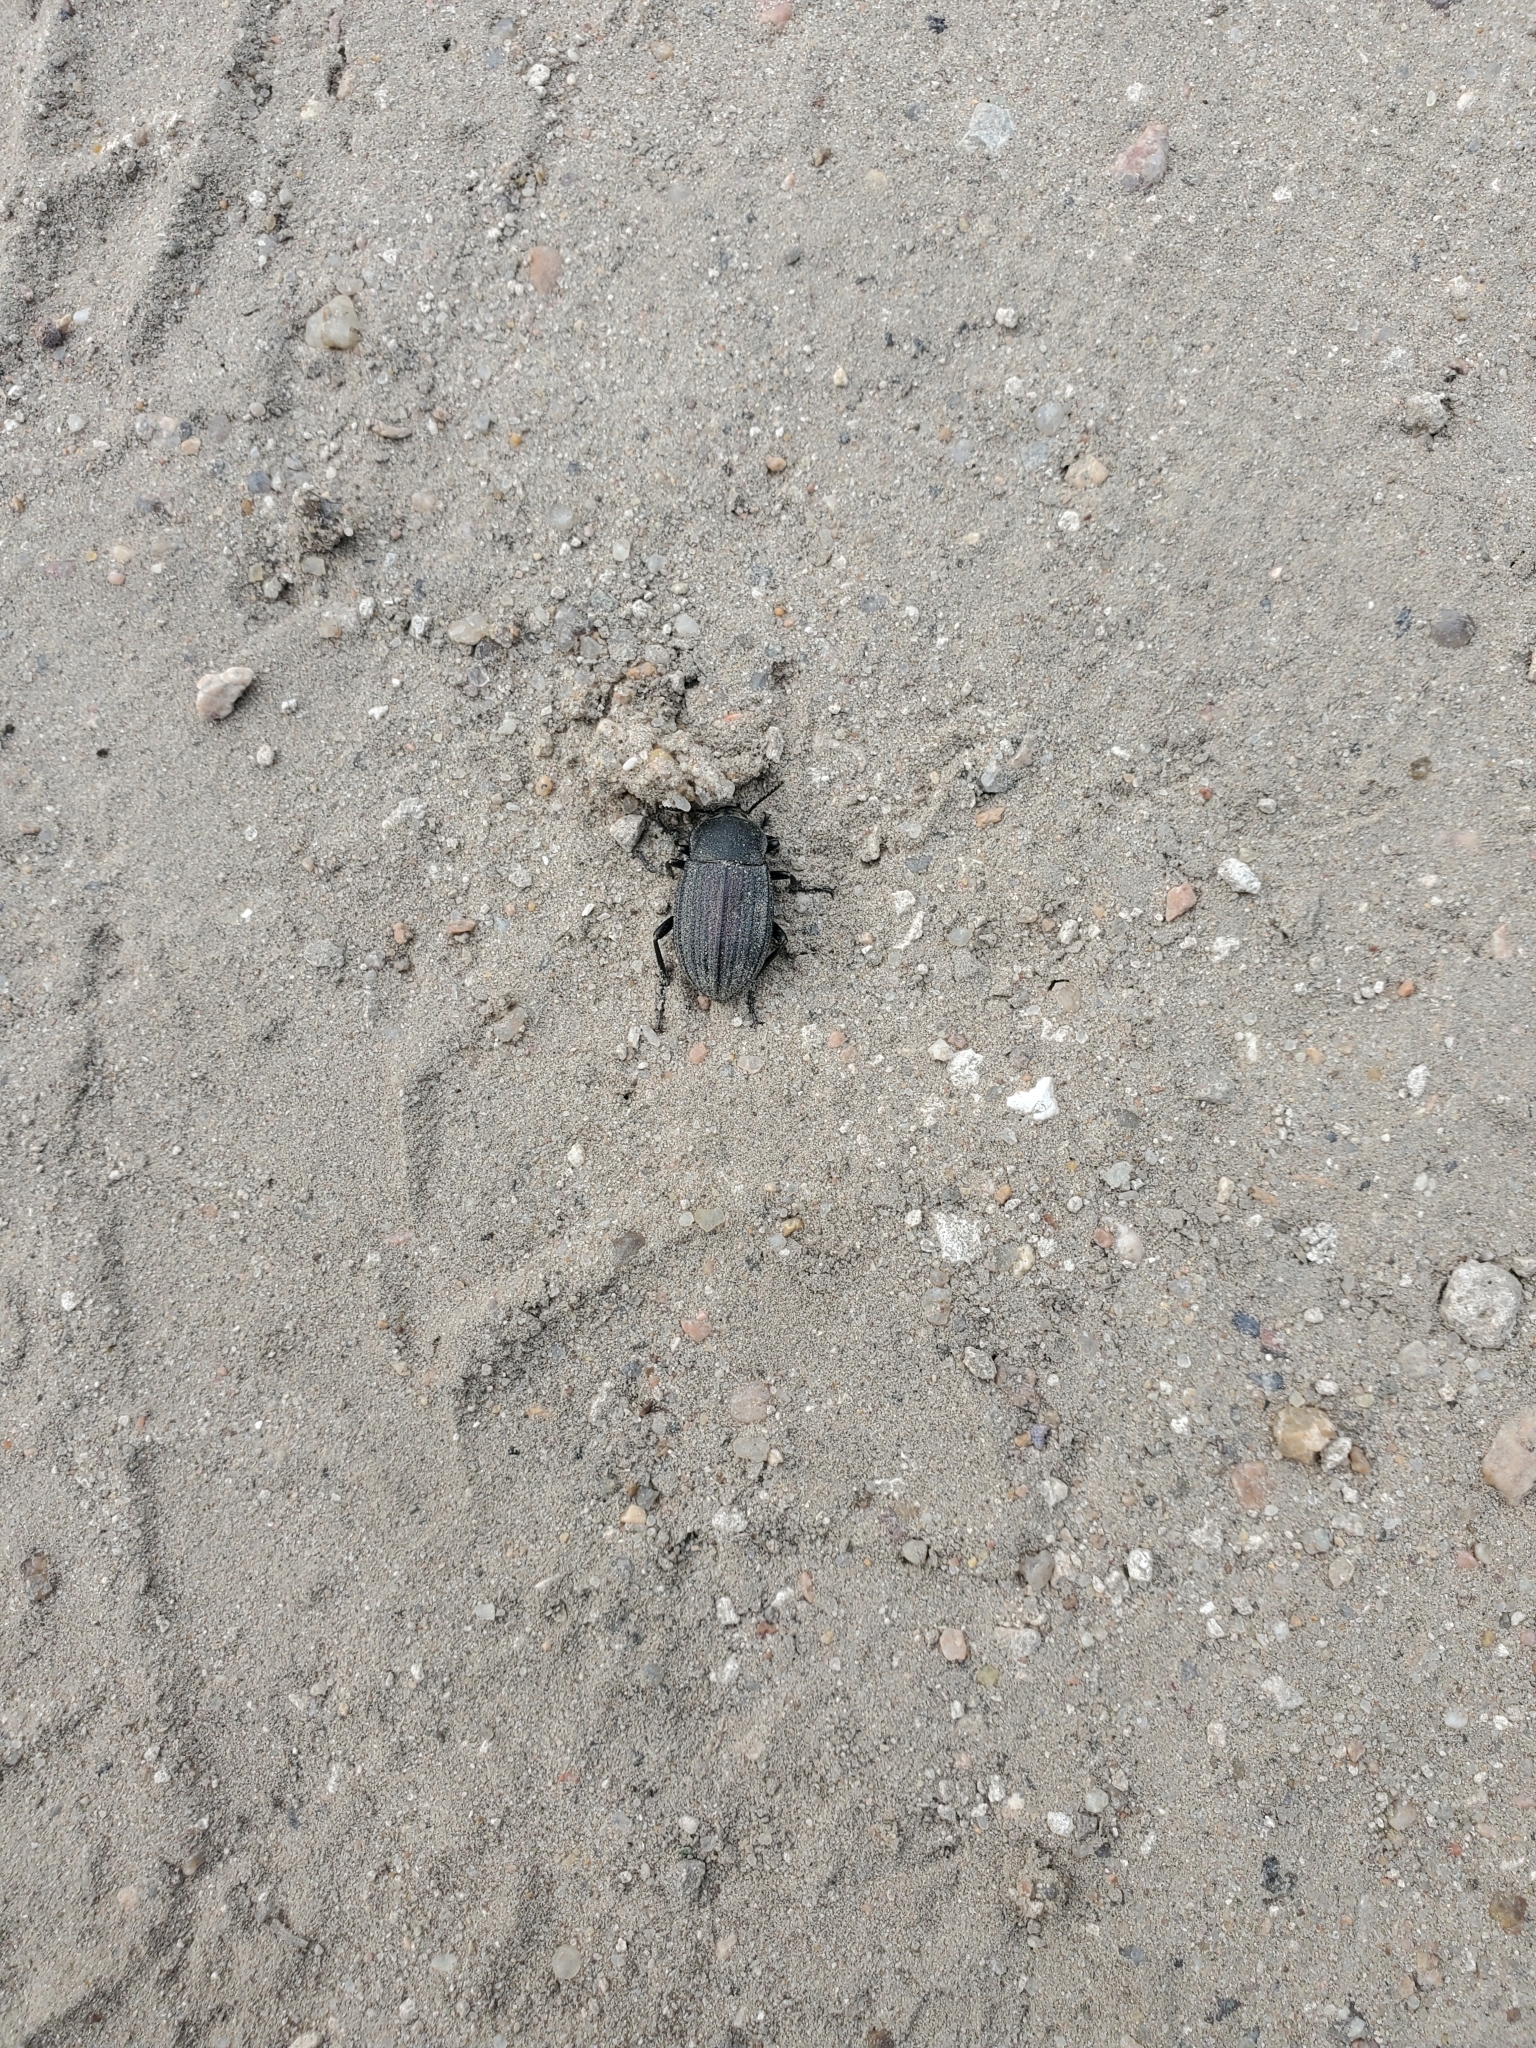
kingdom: Animalia
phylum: Arthropoda
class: Insecta
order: Coleoptera
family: Tenebrionidae
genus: Eleodes
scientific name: Eleodes tricostata
